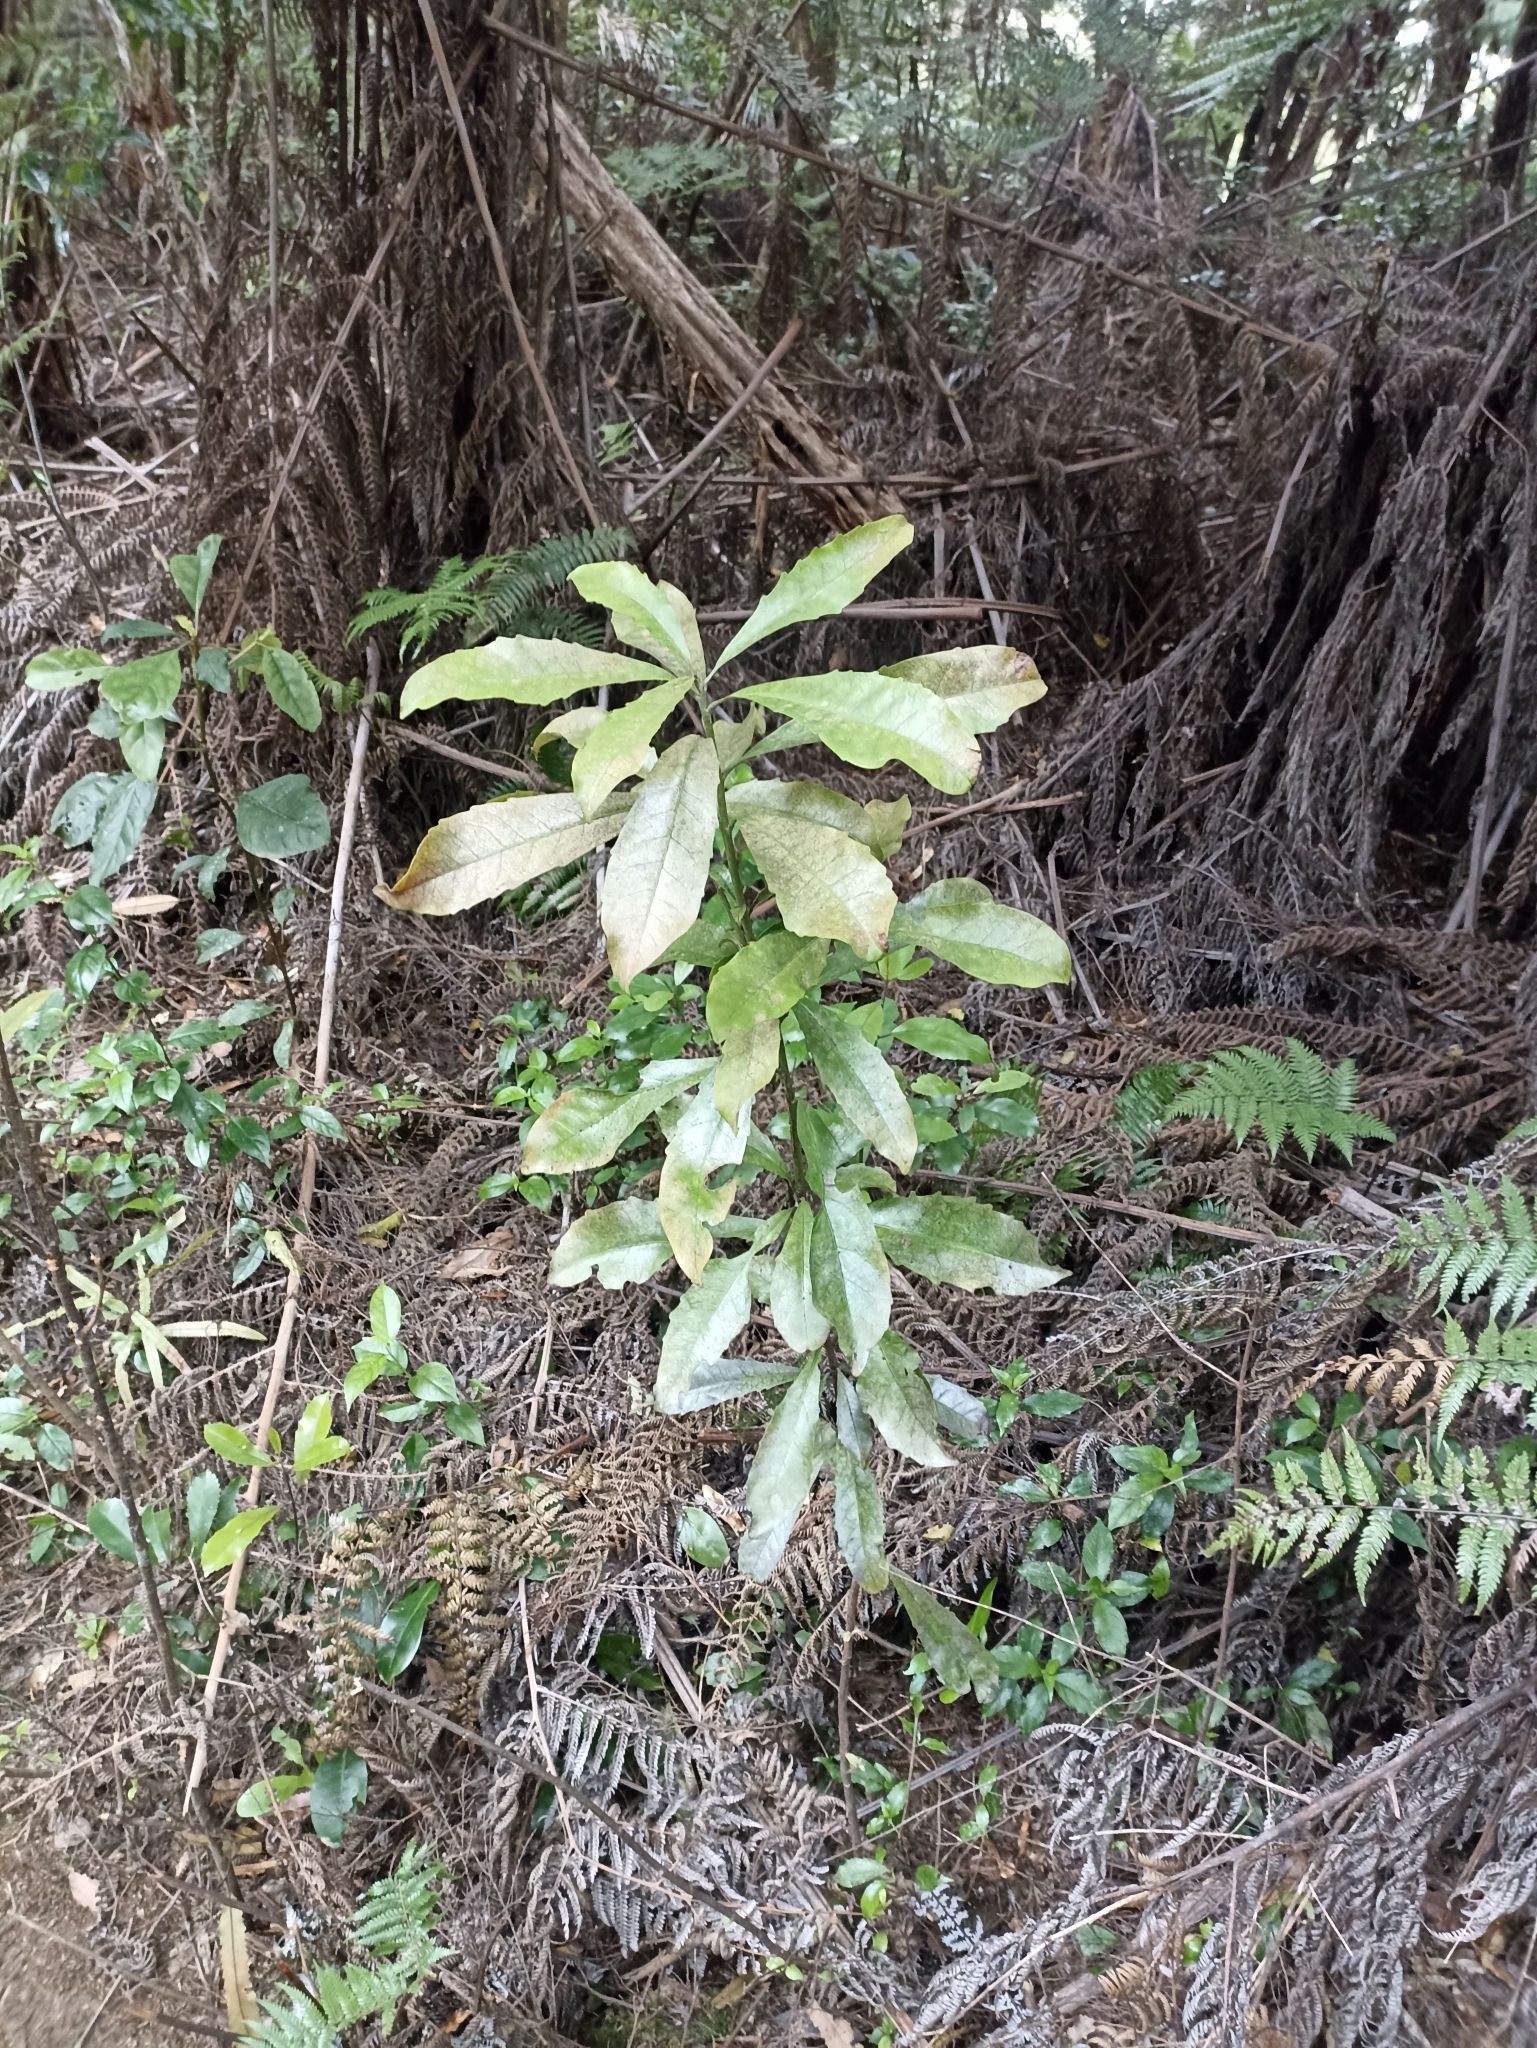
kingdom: Plantae
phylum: Tracheophyta
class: Magnoliopsida
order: Asterales
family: Alseuosmiaceae
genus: Alseuosmia
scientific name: Alseuosmia macrophylla
